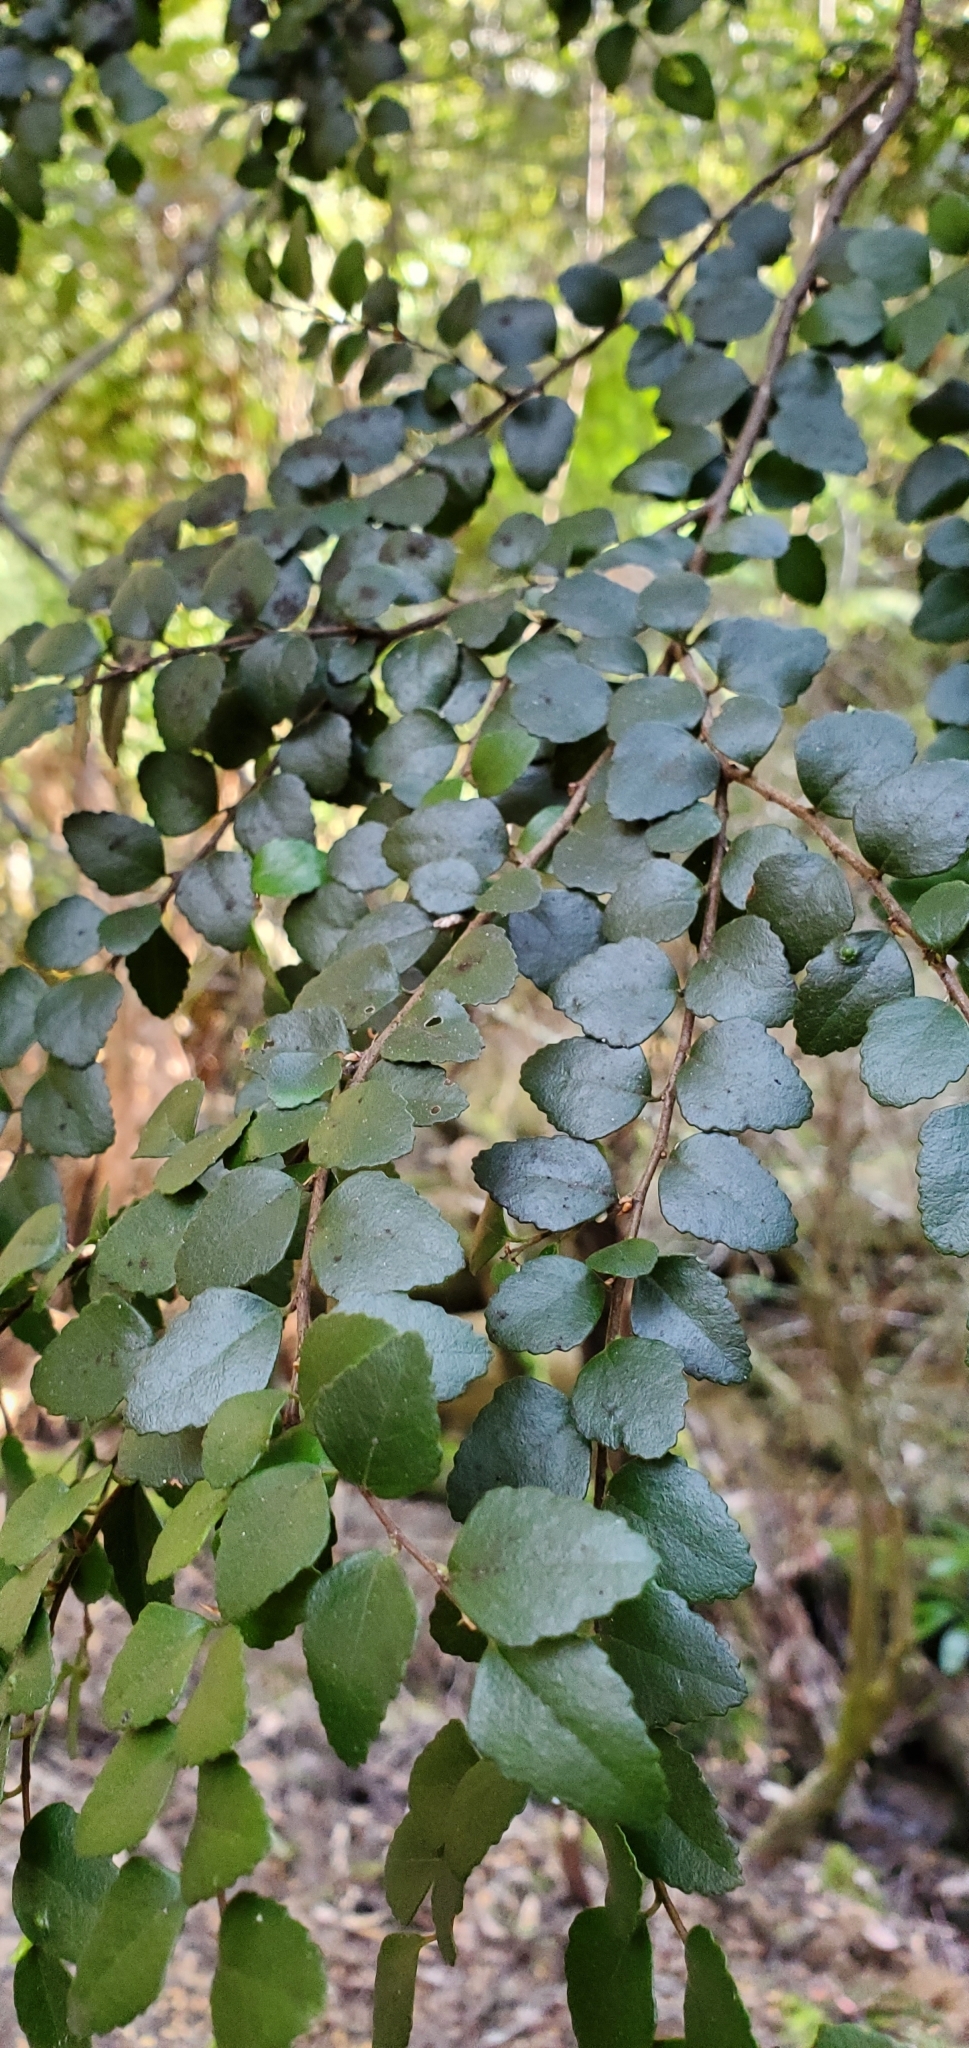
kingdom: Plantae
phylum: Tracheophyta
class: Magnoliopsida
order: Fagales
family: Nothofagaceae
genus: Nothofagus
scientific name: Nothofagus cunninghamii
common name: Myrtle beech
